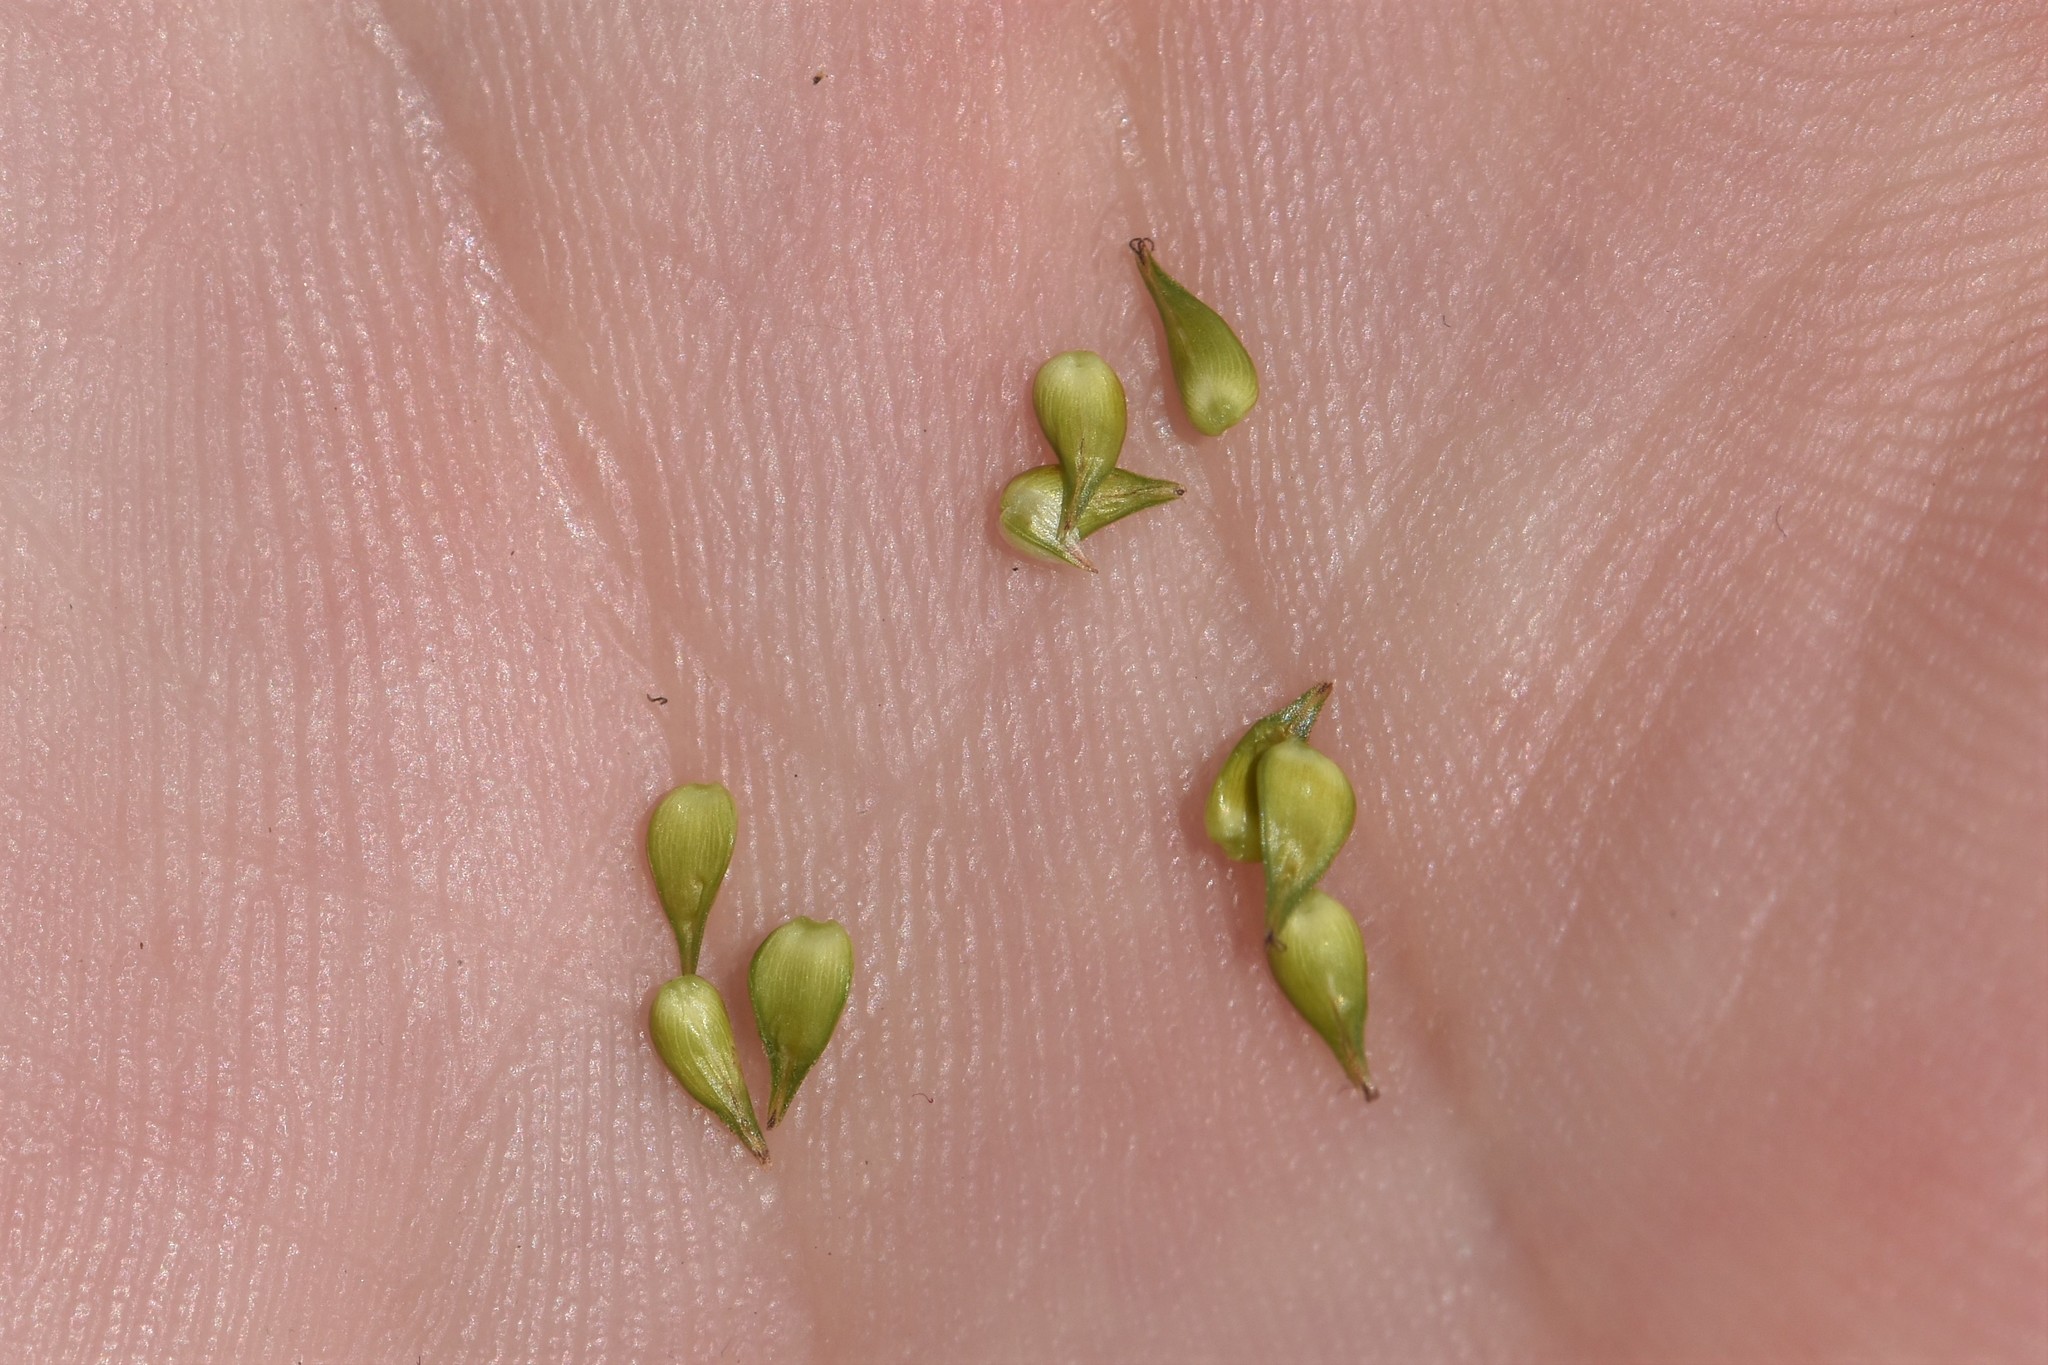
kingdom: Plantae
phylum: Tracheophyta
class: Liliopsida
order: Poales
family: Cyperaceae
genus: Carex
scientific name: Carex echinata
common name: Star sedge
